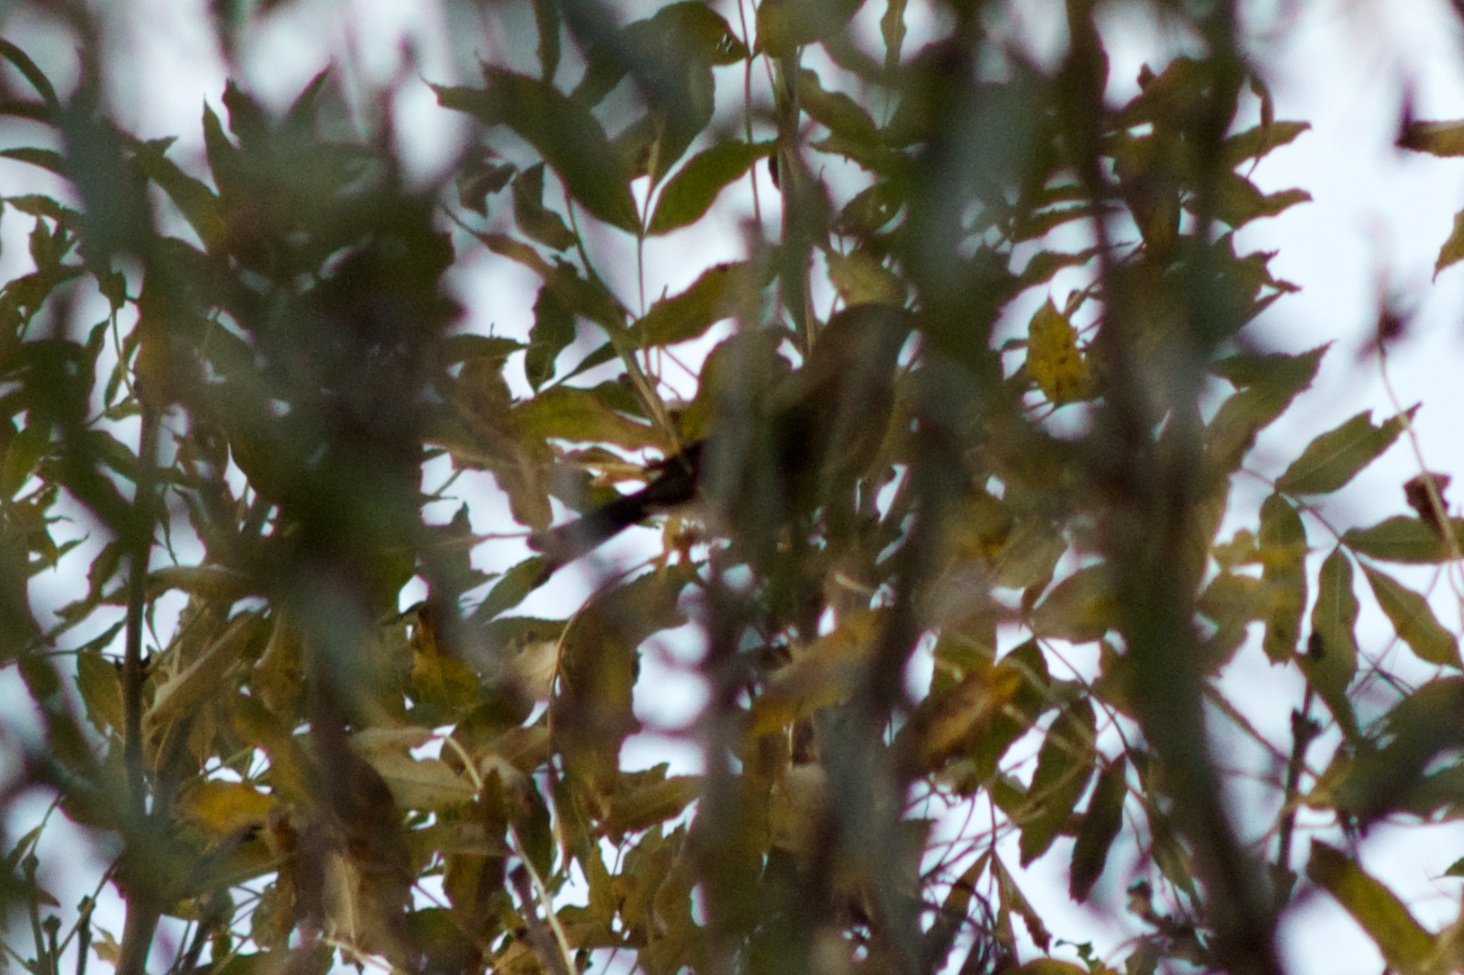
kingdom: Animalia
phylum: Chordata
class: Aves
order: Passeriformes
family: Meliphagidae
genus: Anthornis
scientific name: Anthornis melanura
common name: New zealand bellbird
